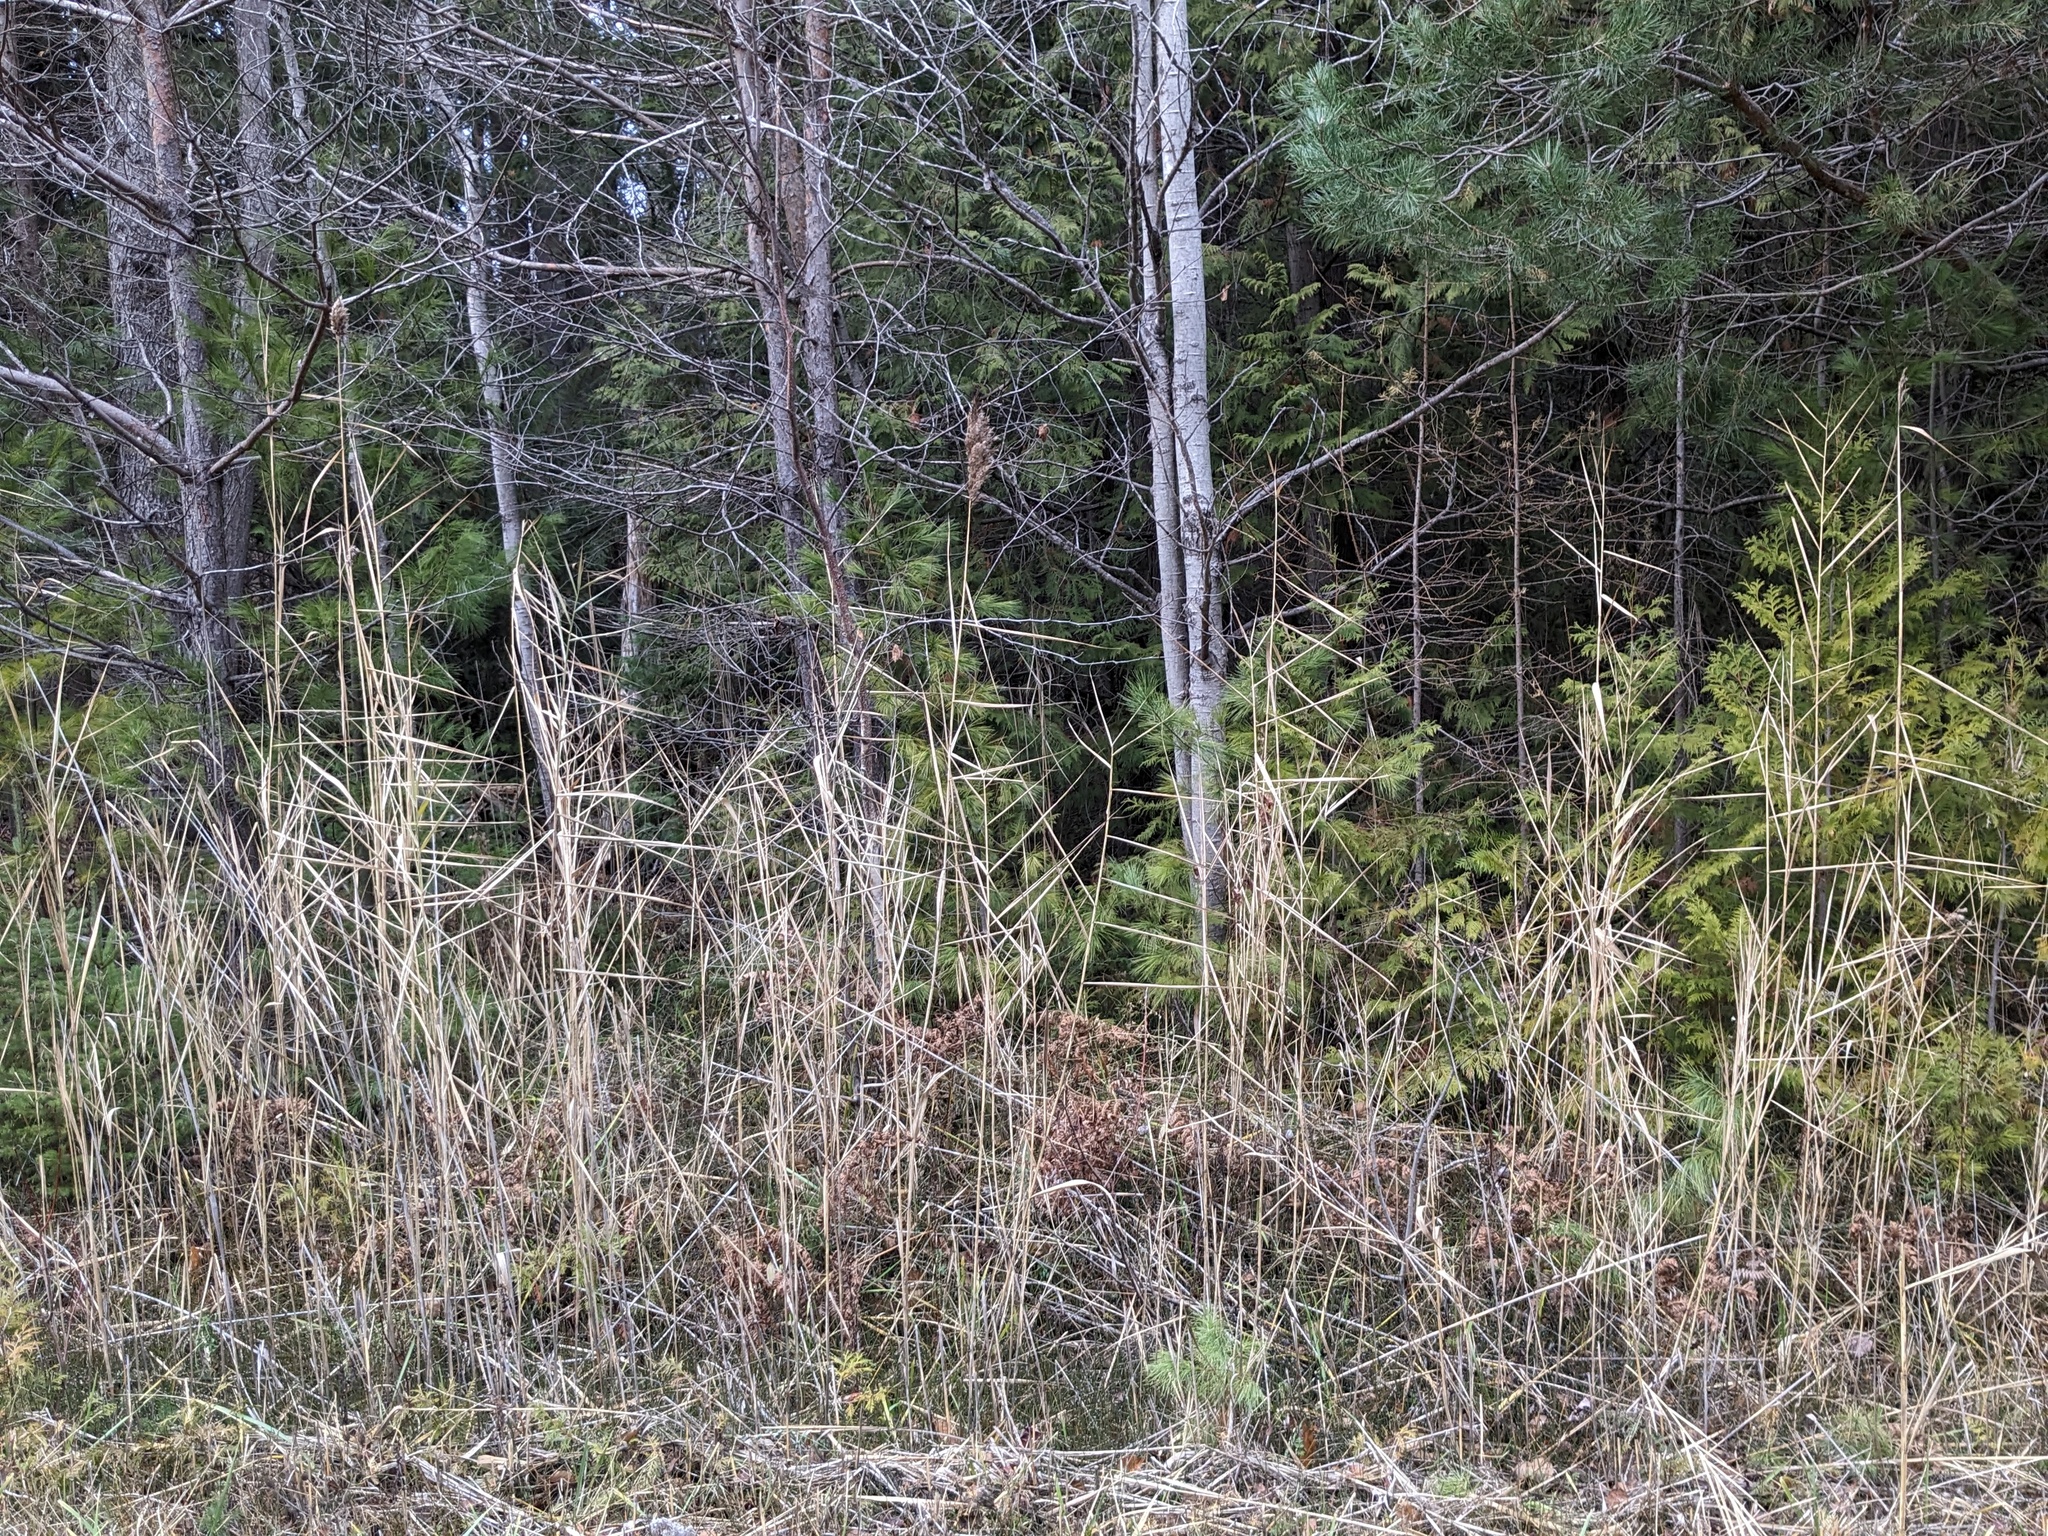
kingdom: Plantae
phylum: Tracheophyta
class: Liliopsida
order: Poales
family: Poaceae
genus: Phragmites
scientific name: Phragmites australis
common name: Common reed
